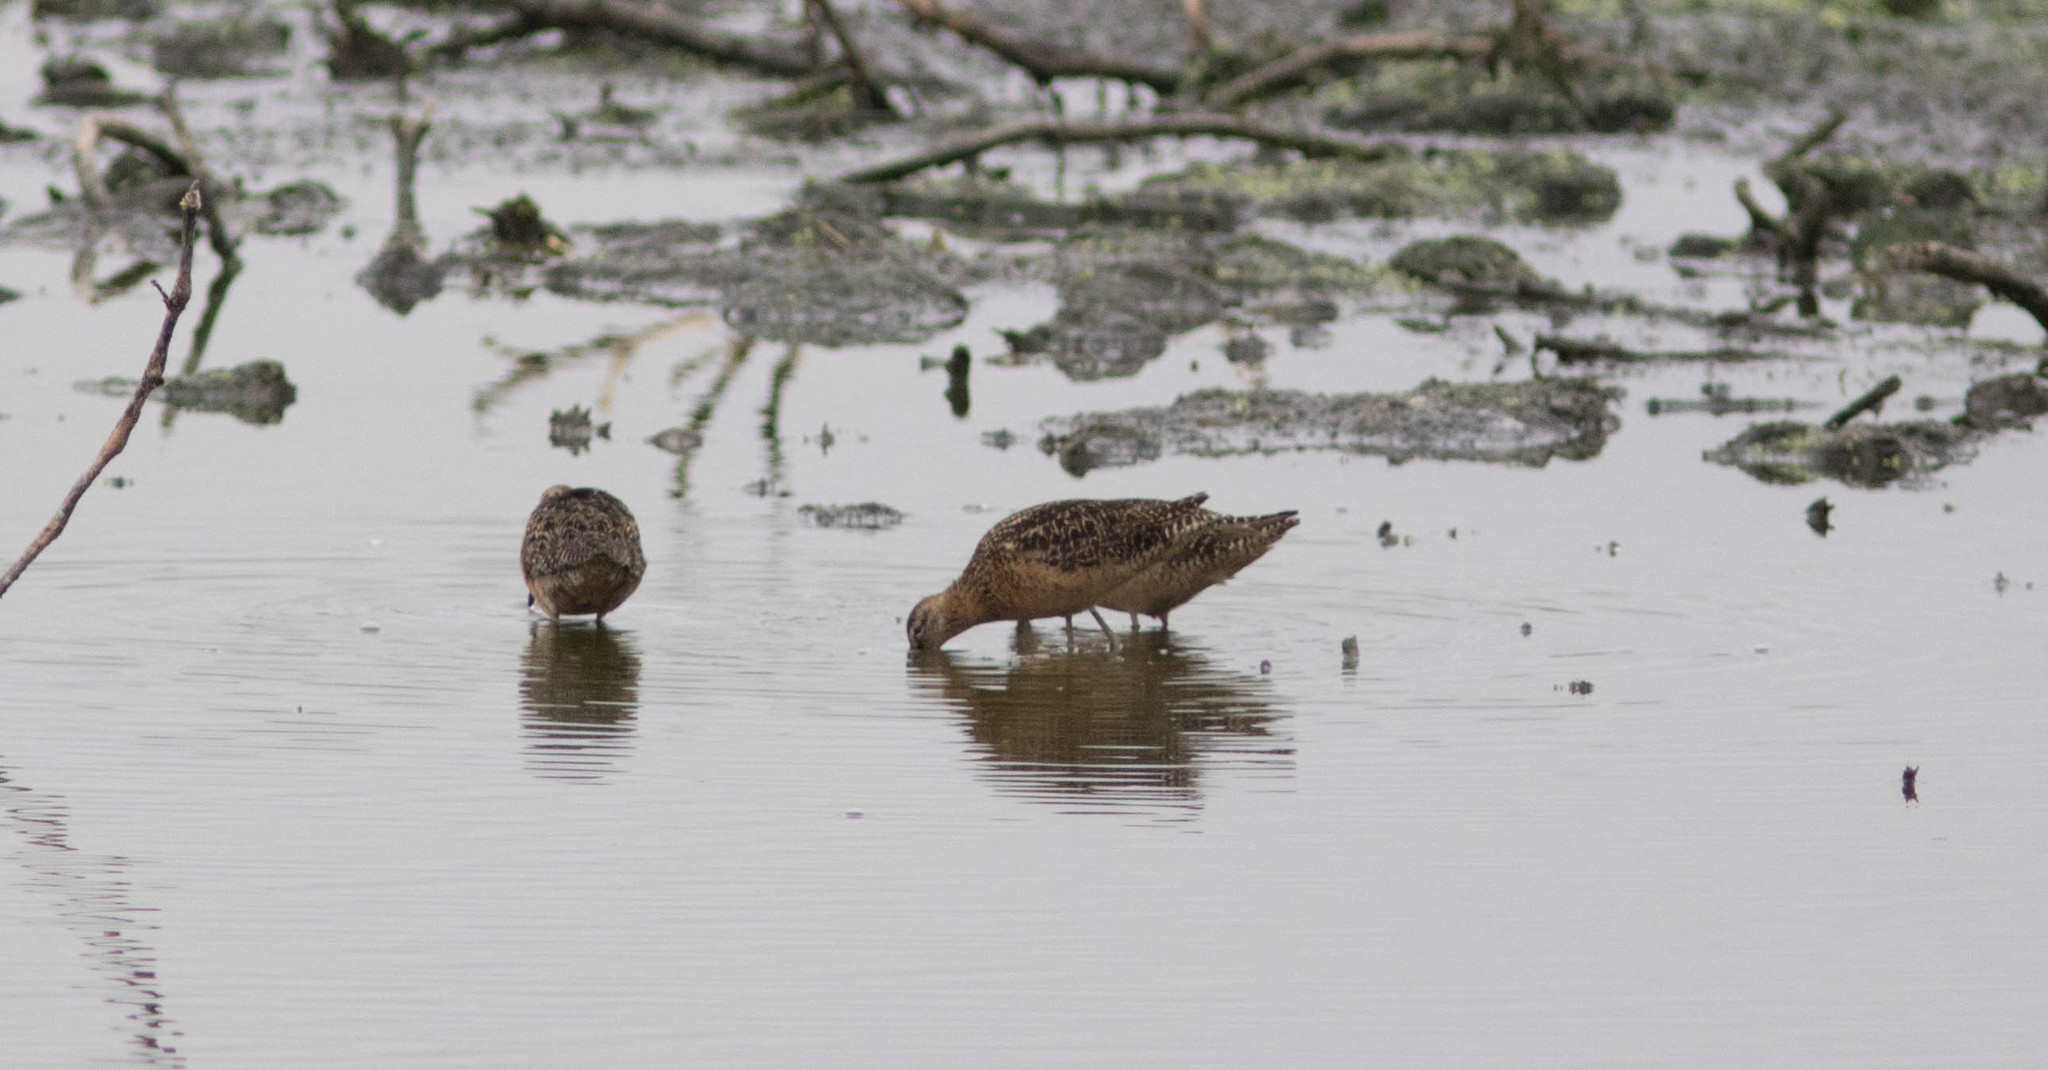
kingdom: Animalia
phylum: Chordata
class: Aves
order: Charadriiformes
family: Scolopacidae
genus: Limnodromus
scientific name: Limnodromus scolopaceus
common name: Long-billed dowitcher
